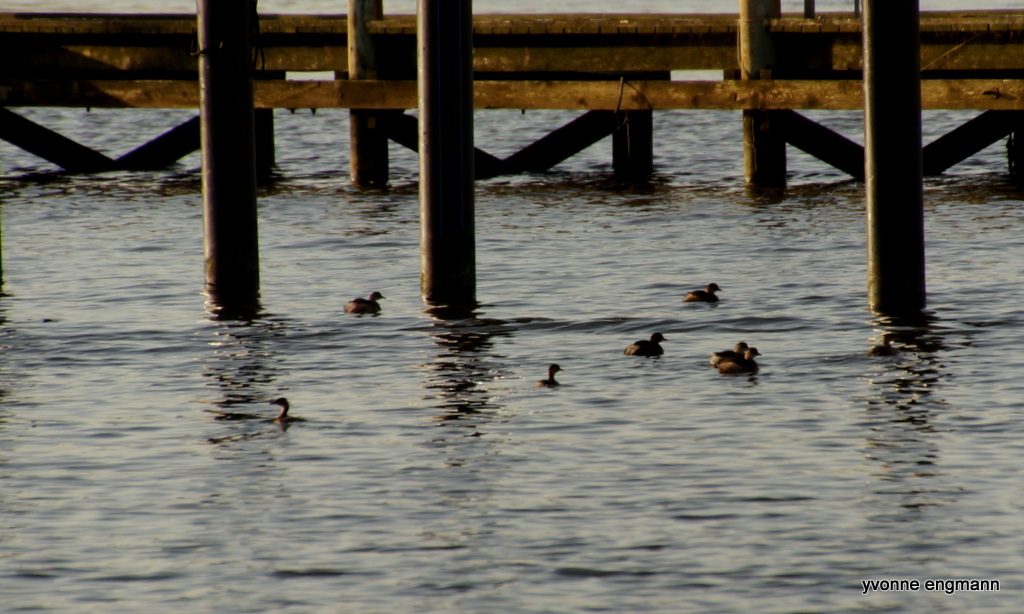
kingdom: Animalia
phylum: Chordata
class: Aves
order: Podicipediformes
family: Podicipedidae
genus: Tachybaptus
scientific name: Tachybaptus ruficollis
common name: Little grebe
